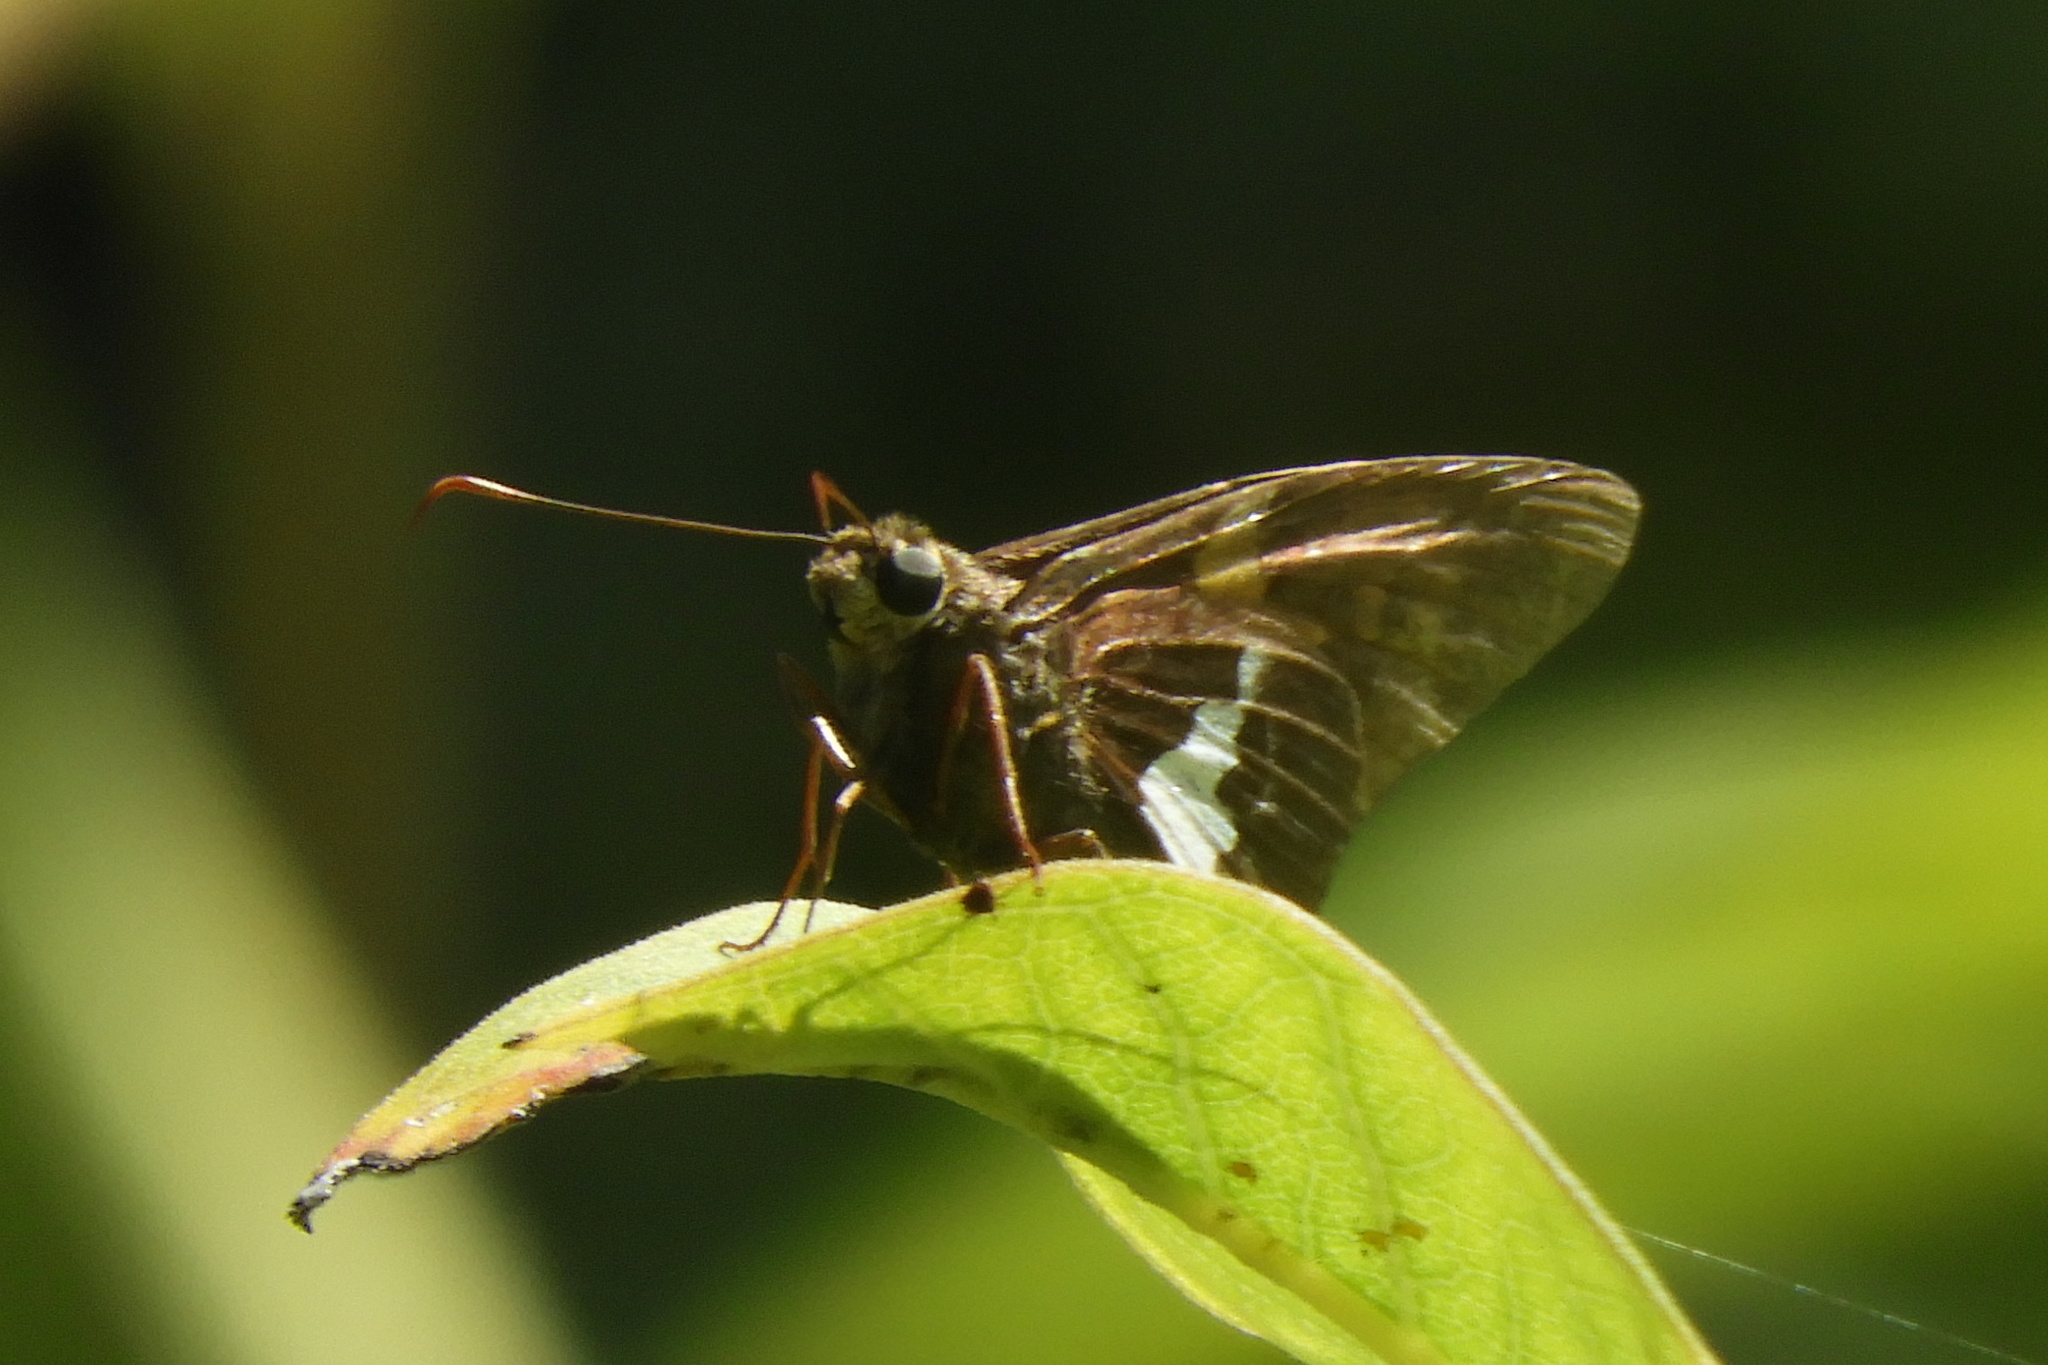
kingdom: Animalia
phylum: Arthropoda
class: Insecta
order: Lepidoptera
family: Hesperiidae
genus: Epargyreus
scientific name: Epargyreus clarus
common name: Silver-spotted skipper
